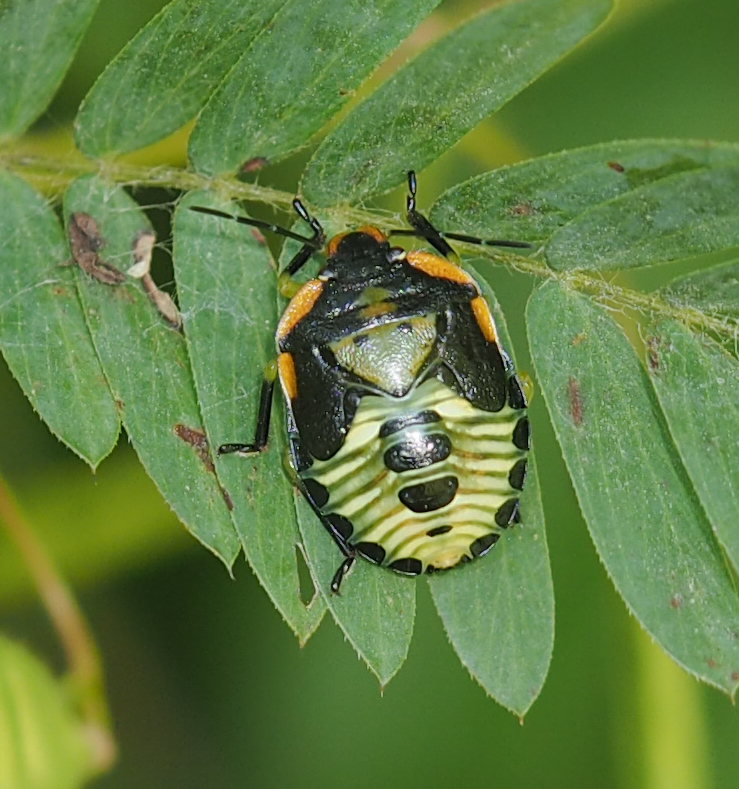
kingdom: Animalia
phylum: Arthropoda
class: Insecta
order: Hemiptera
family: Pentatomidae
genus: Chinavia
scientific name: Chinavia hilaris
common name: Green stink bug
